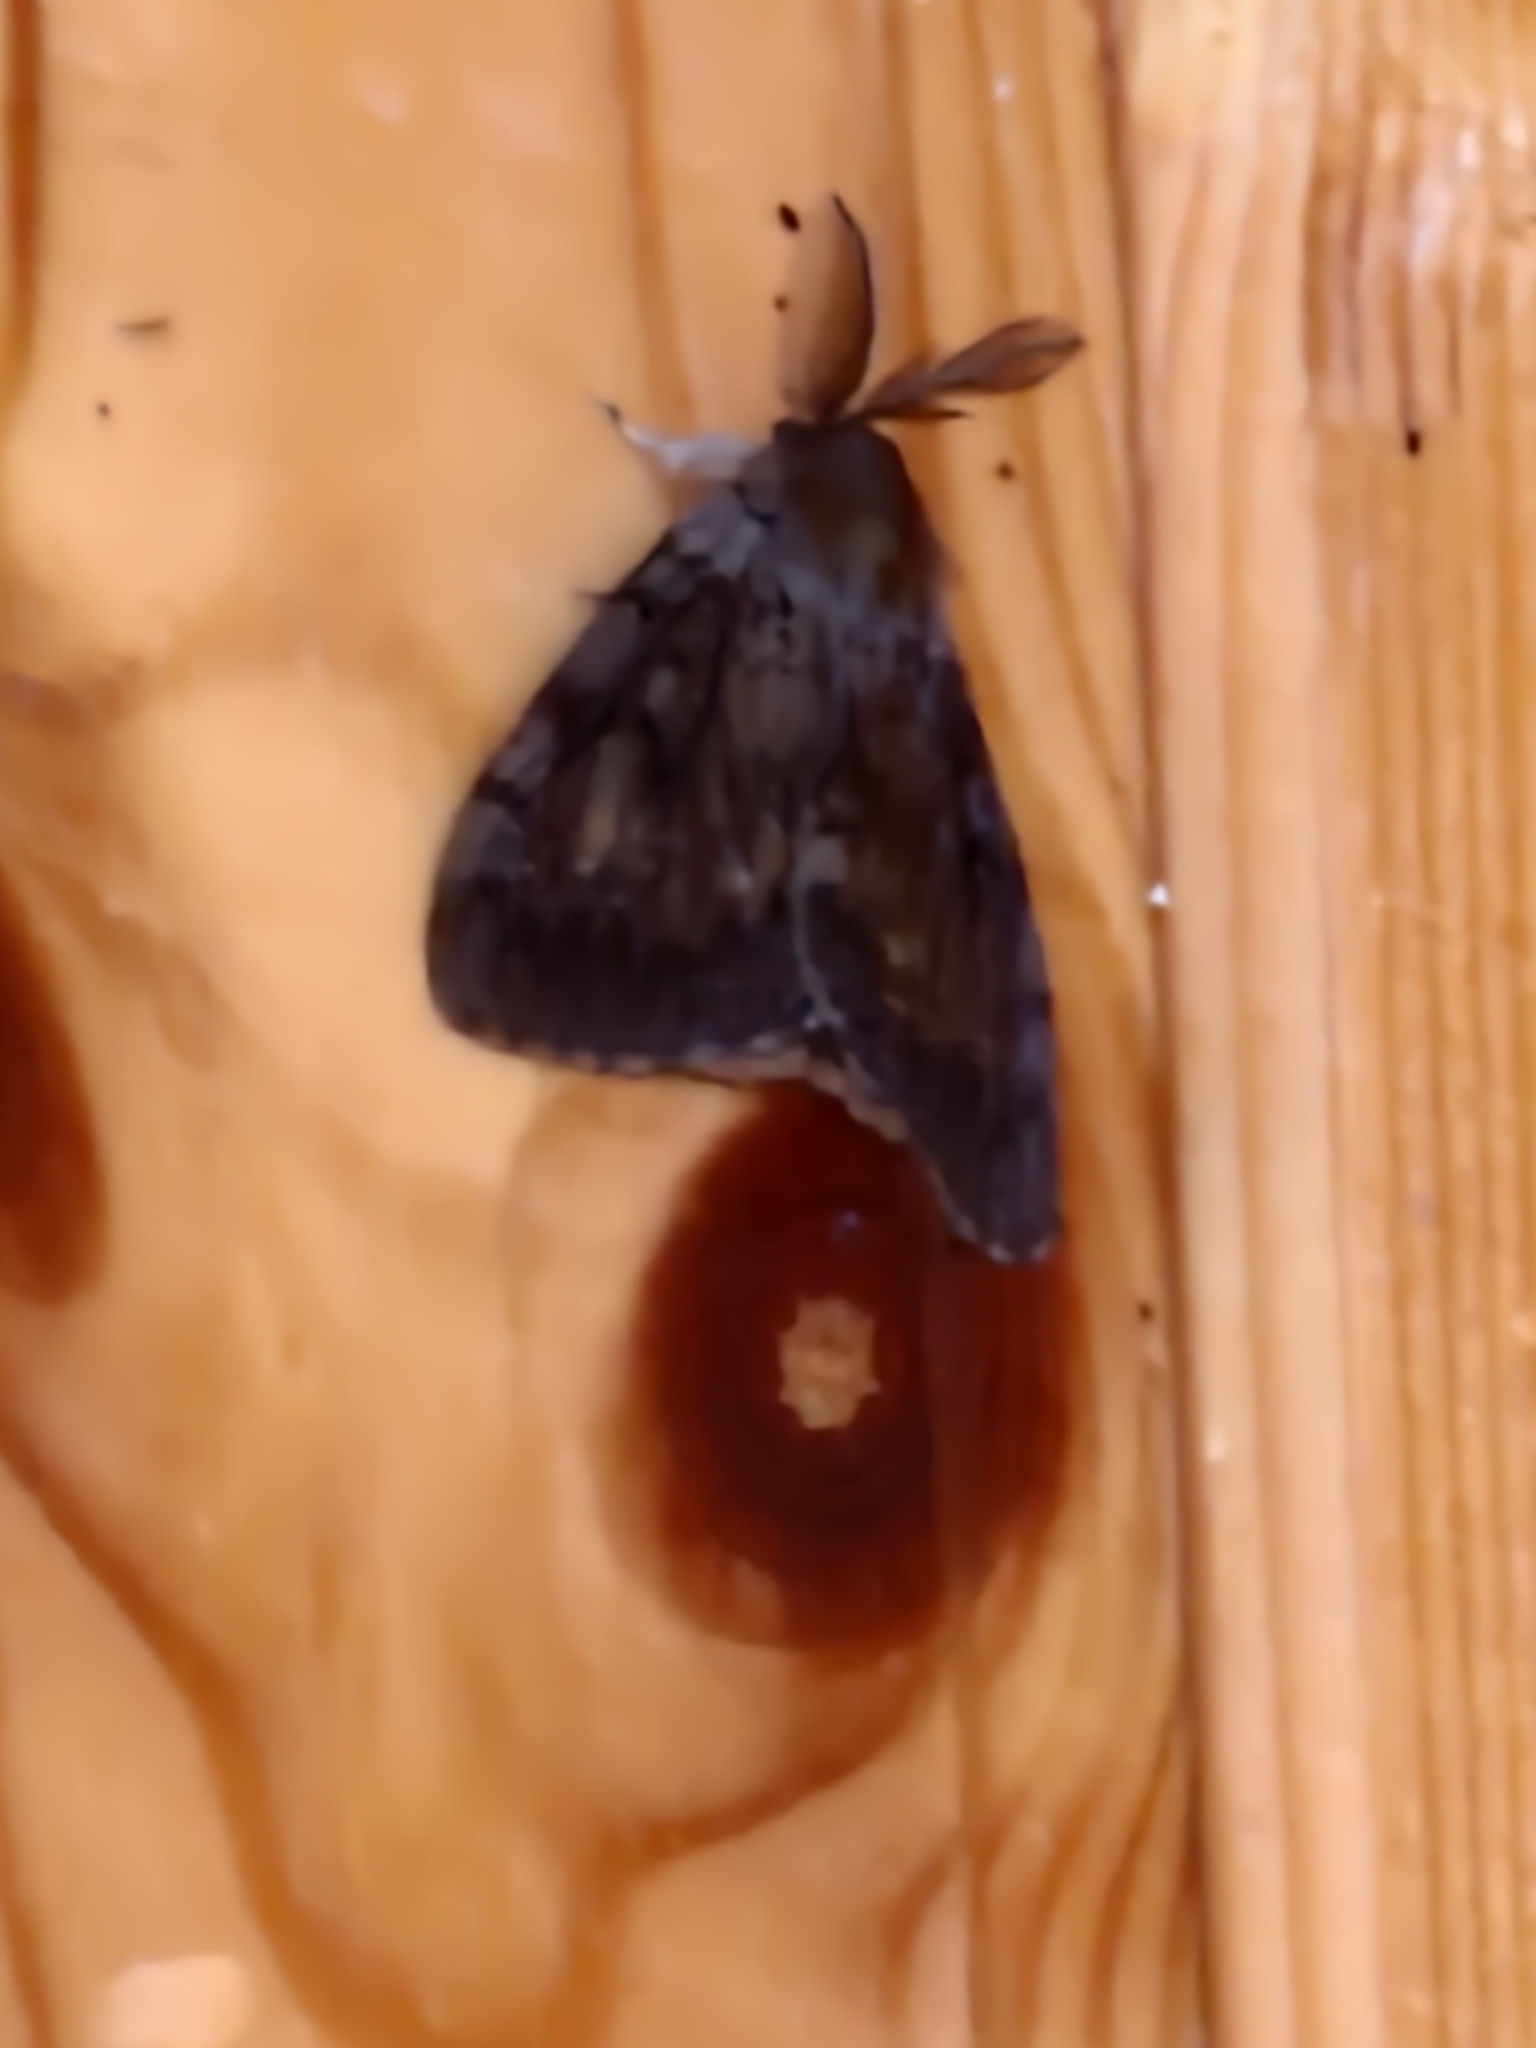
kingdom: Animalia
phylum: Arthropoda
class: Insecta
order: Lepidoptera
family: Erebidae
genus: Lymantria
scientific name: Lymantria dispar
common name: Gypsy moth
